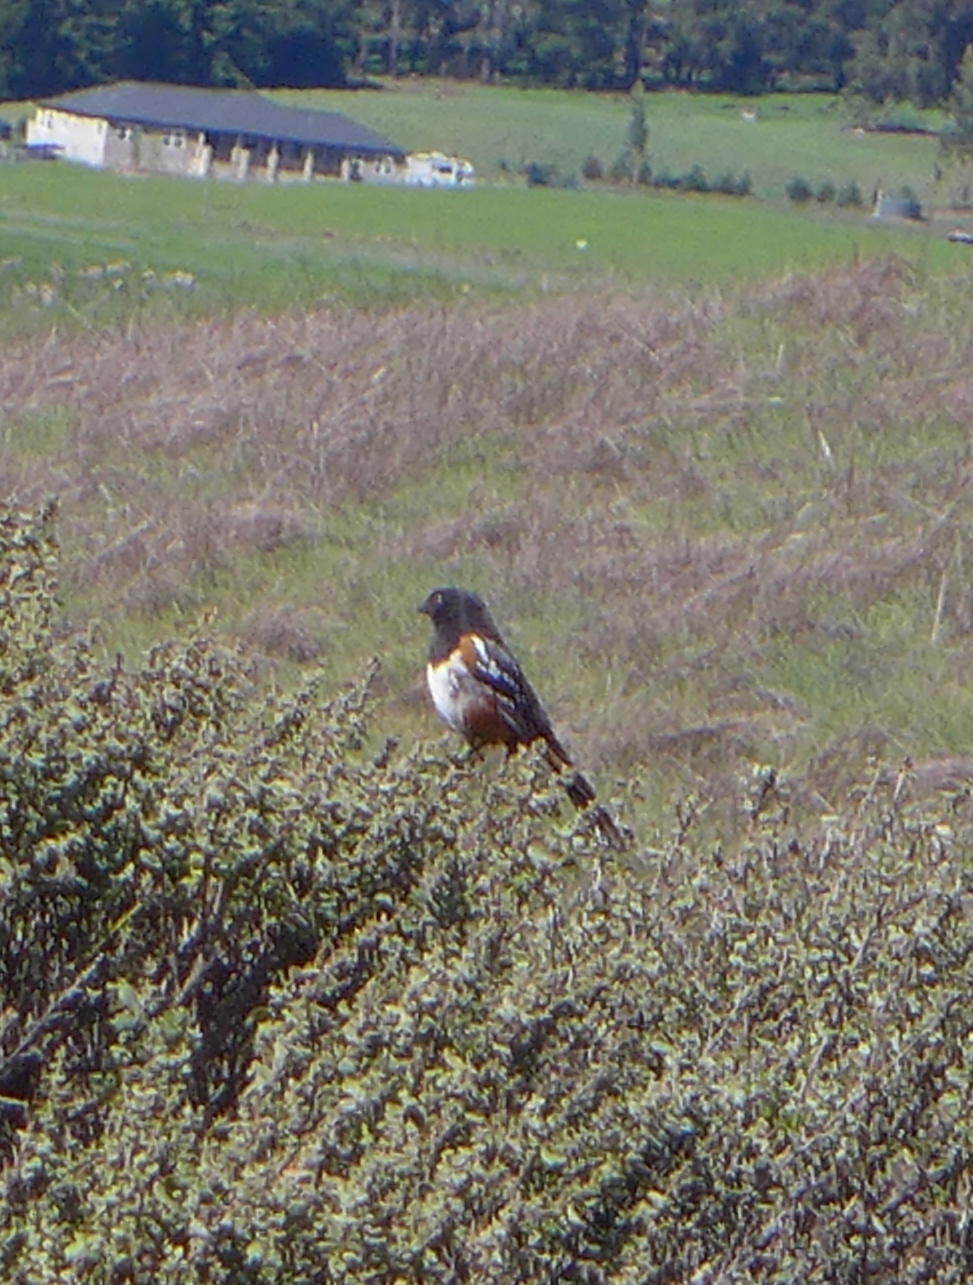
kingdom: Animalia
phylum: Chordata
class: Aves
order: Passeriformes
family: Passerellidae
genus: Pipilo
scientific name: Pipilo maculatus
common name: Spotted towhee
